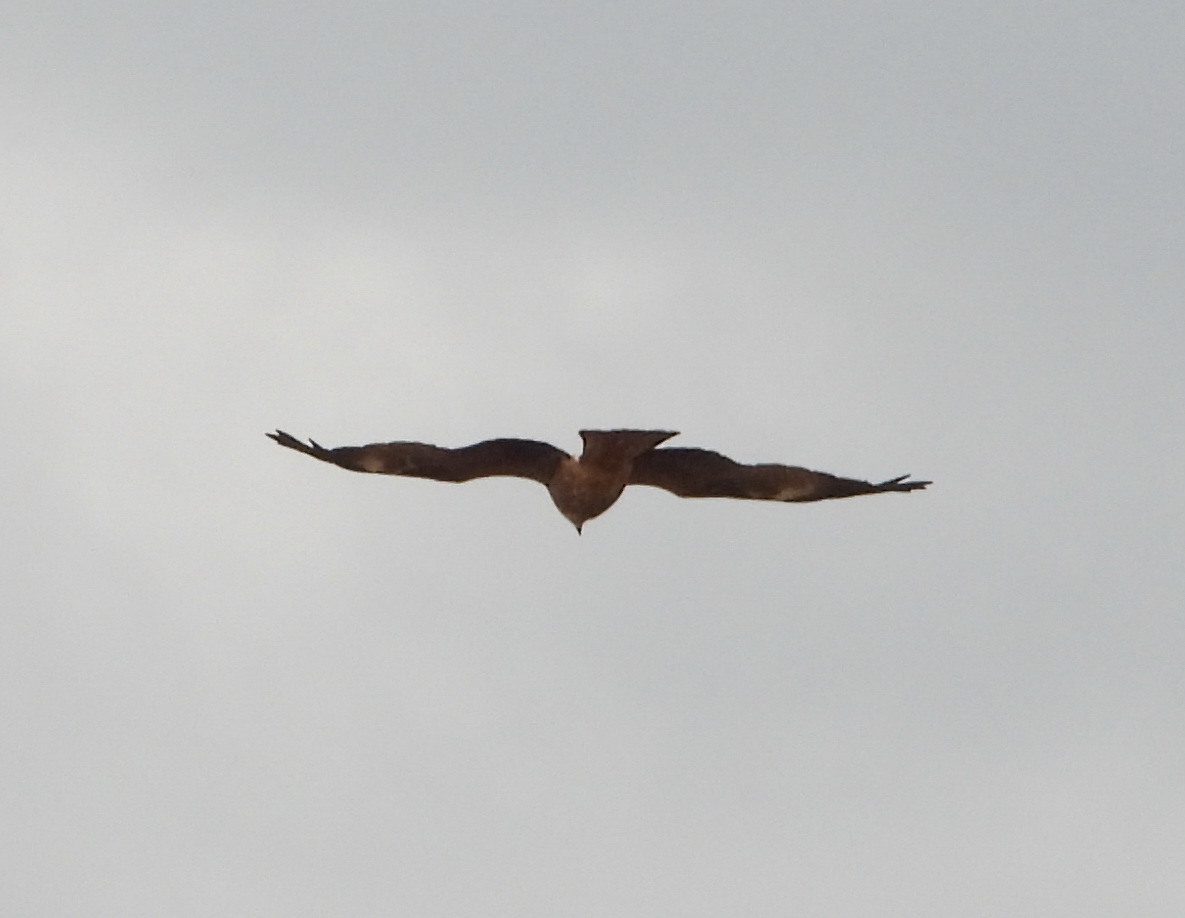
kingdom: Animalia
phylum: Chordata
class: Aves
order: Accipitriformes
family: Accipitridae
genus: Milvus
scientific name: Milvus migrans
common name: Black kite
